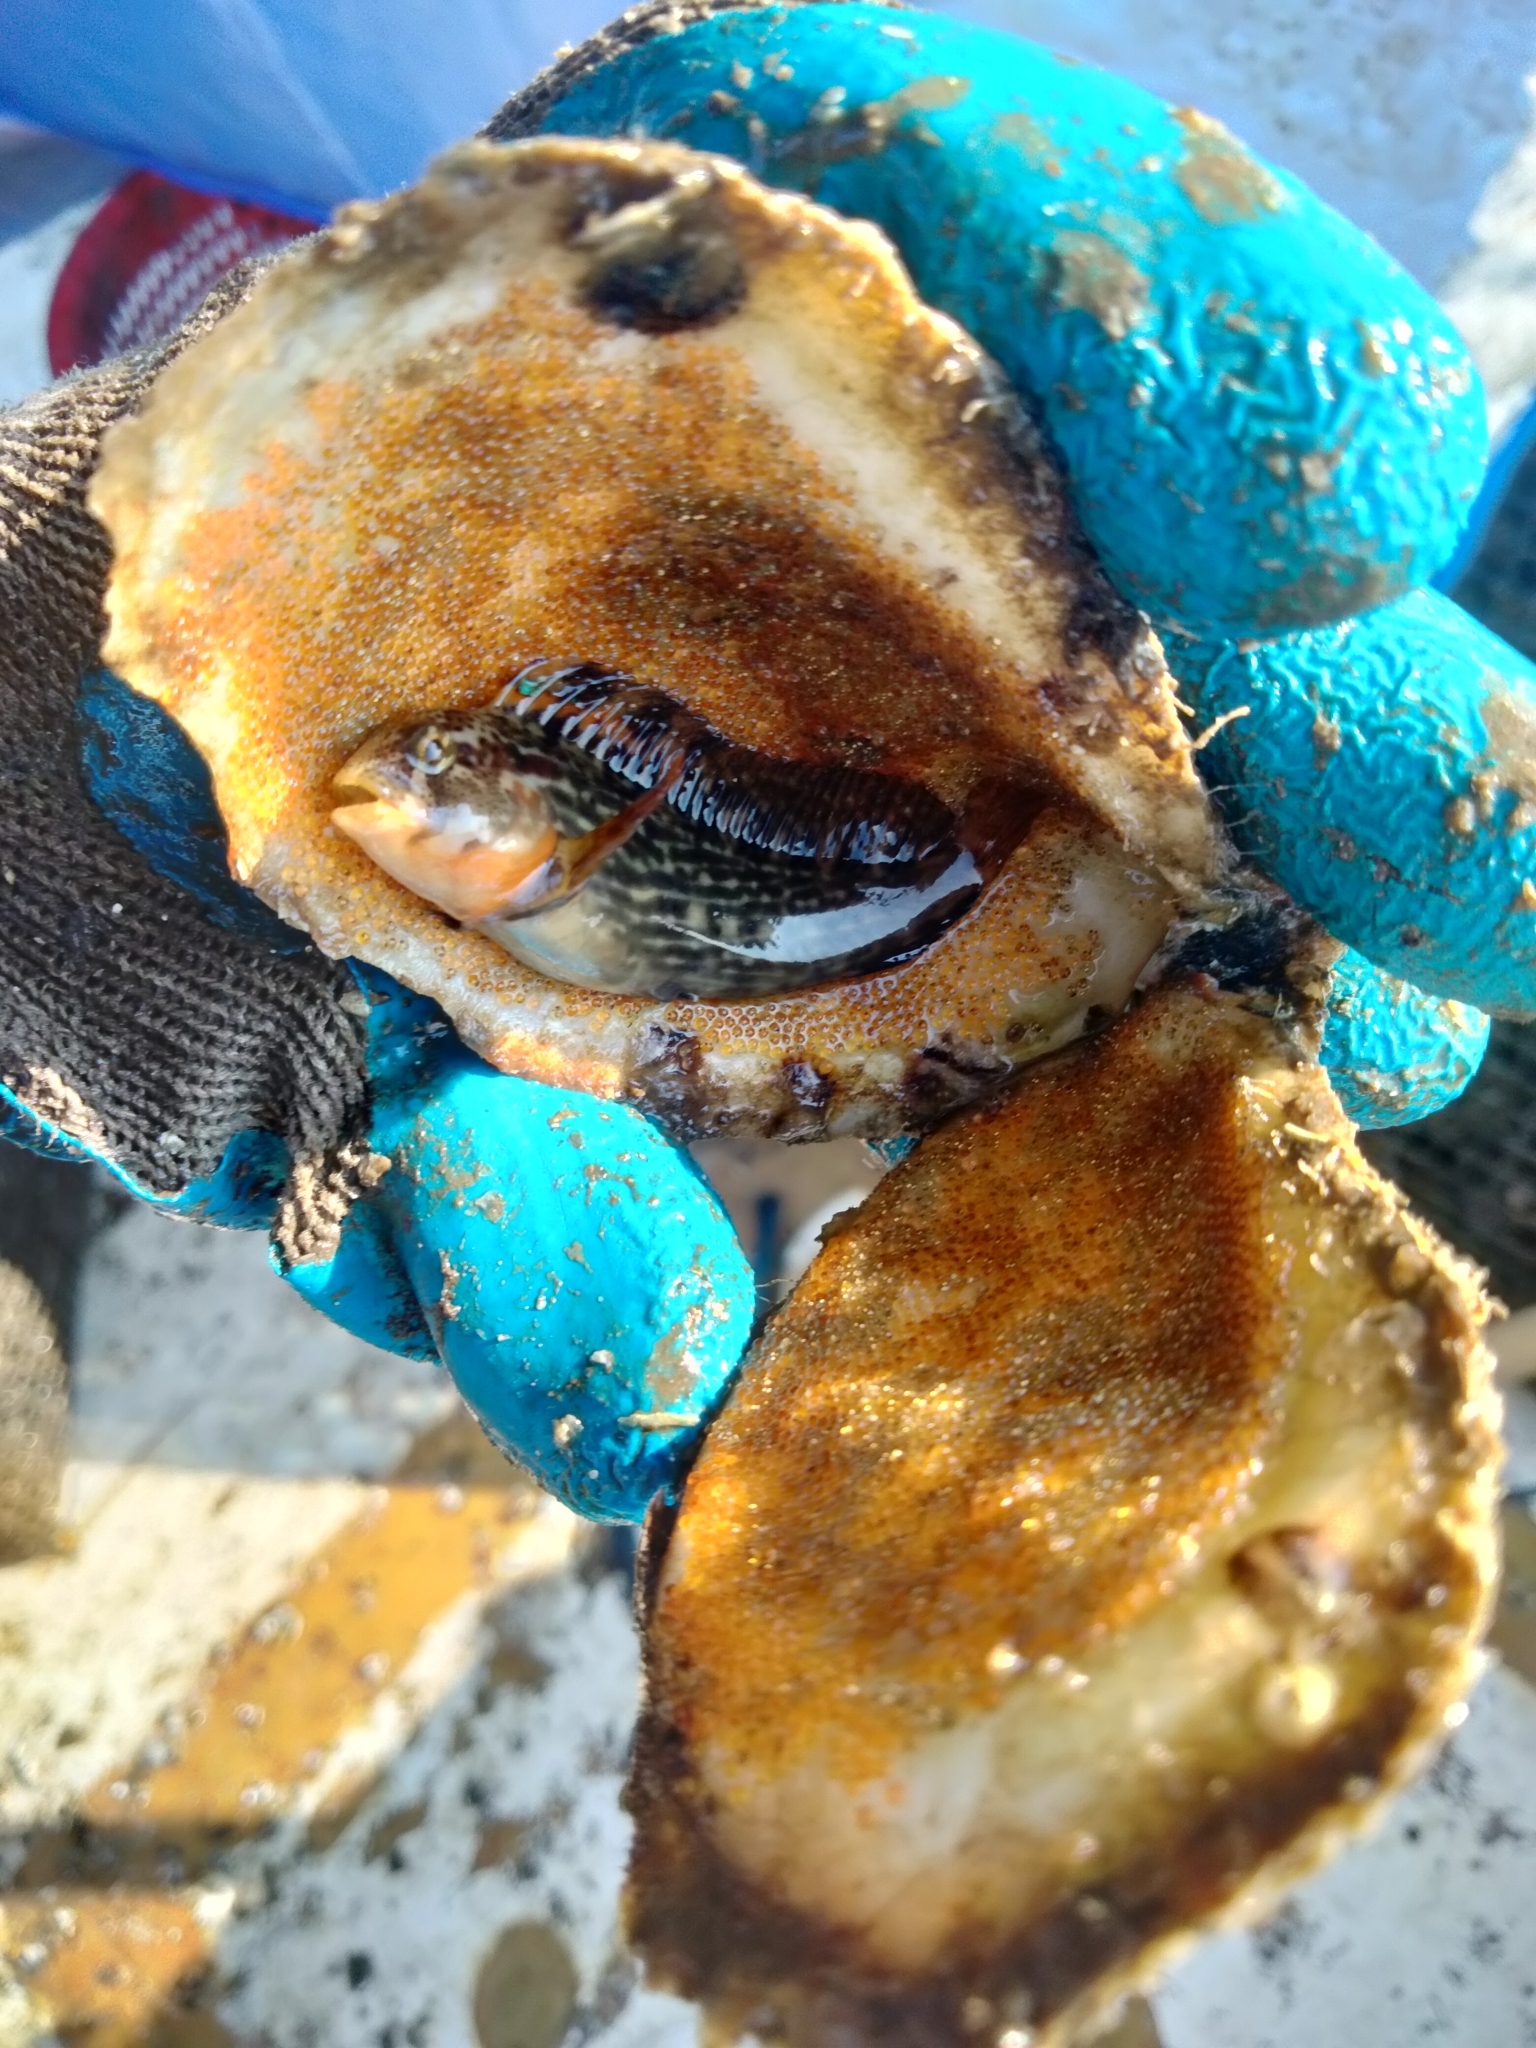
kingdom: Animalia
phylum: Chordata
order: Perciformes
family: Blenniidae
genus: Chasmodes
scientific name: Chasmodes saburrae
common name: Florida blenny
